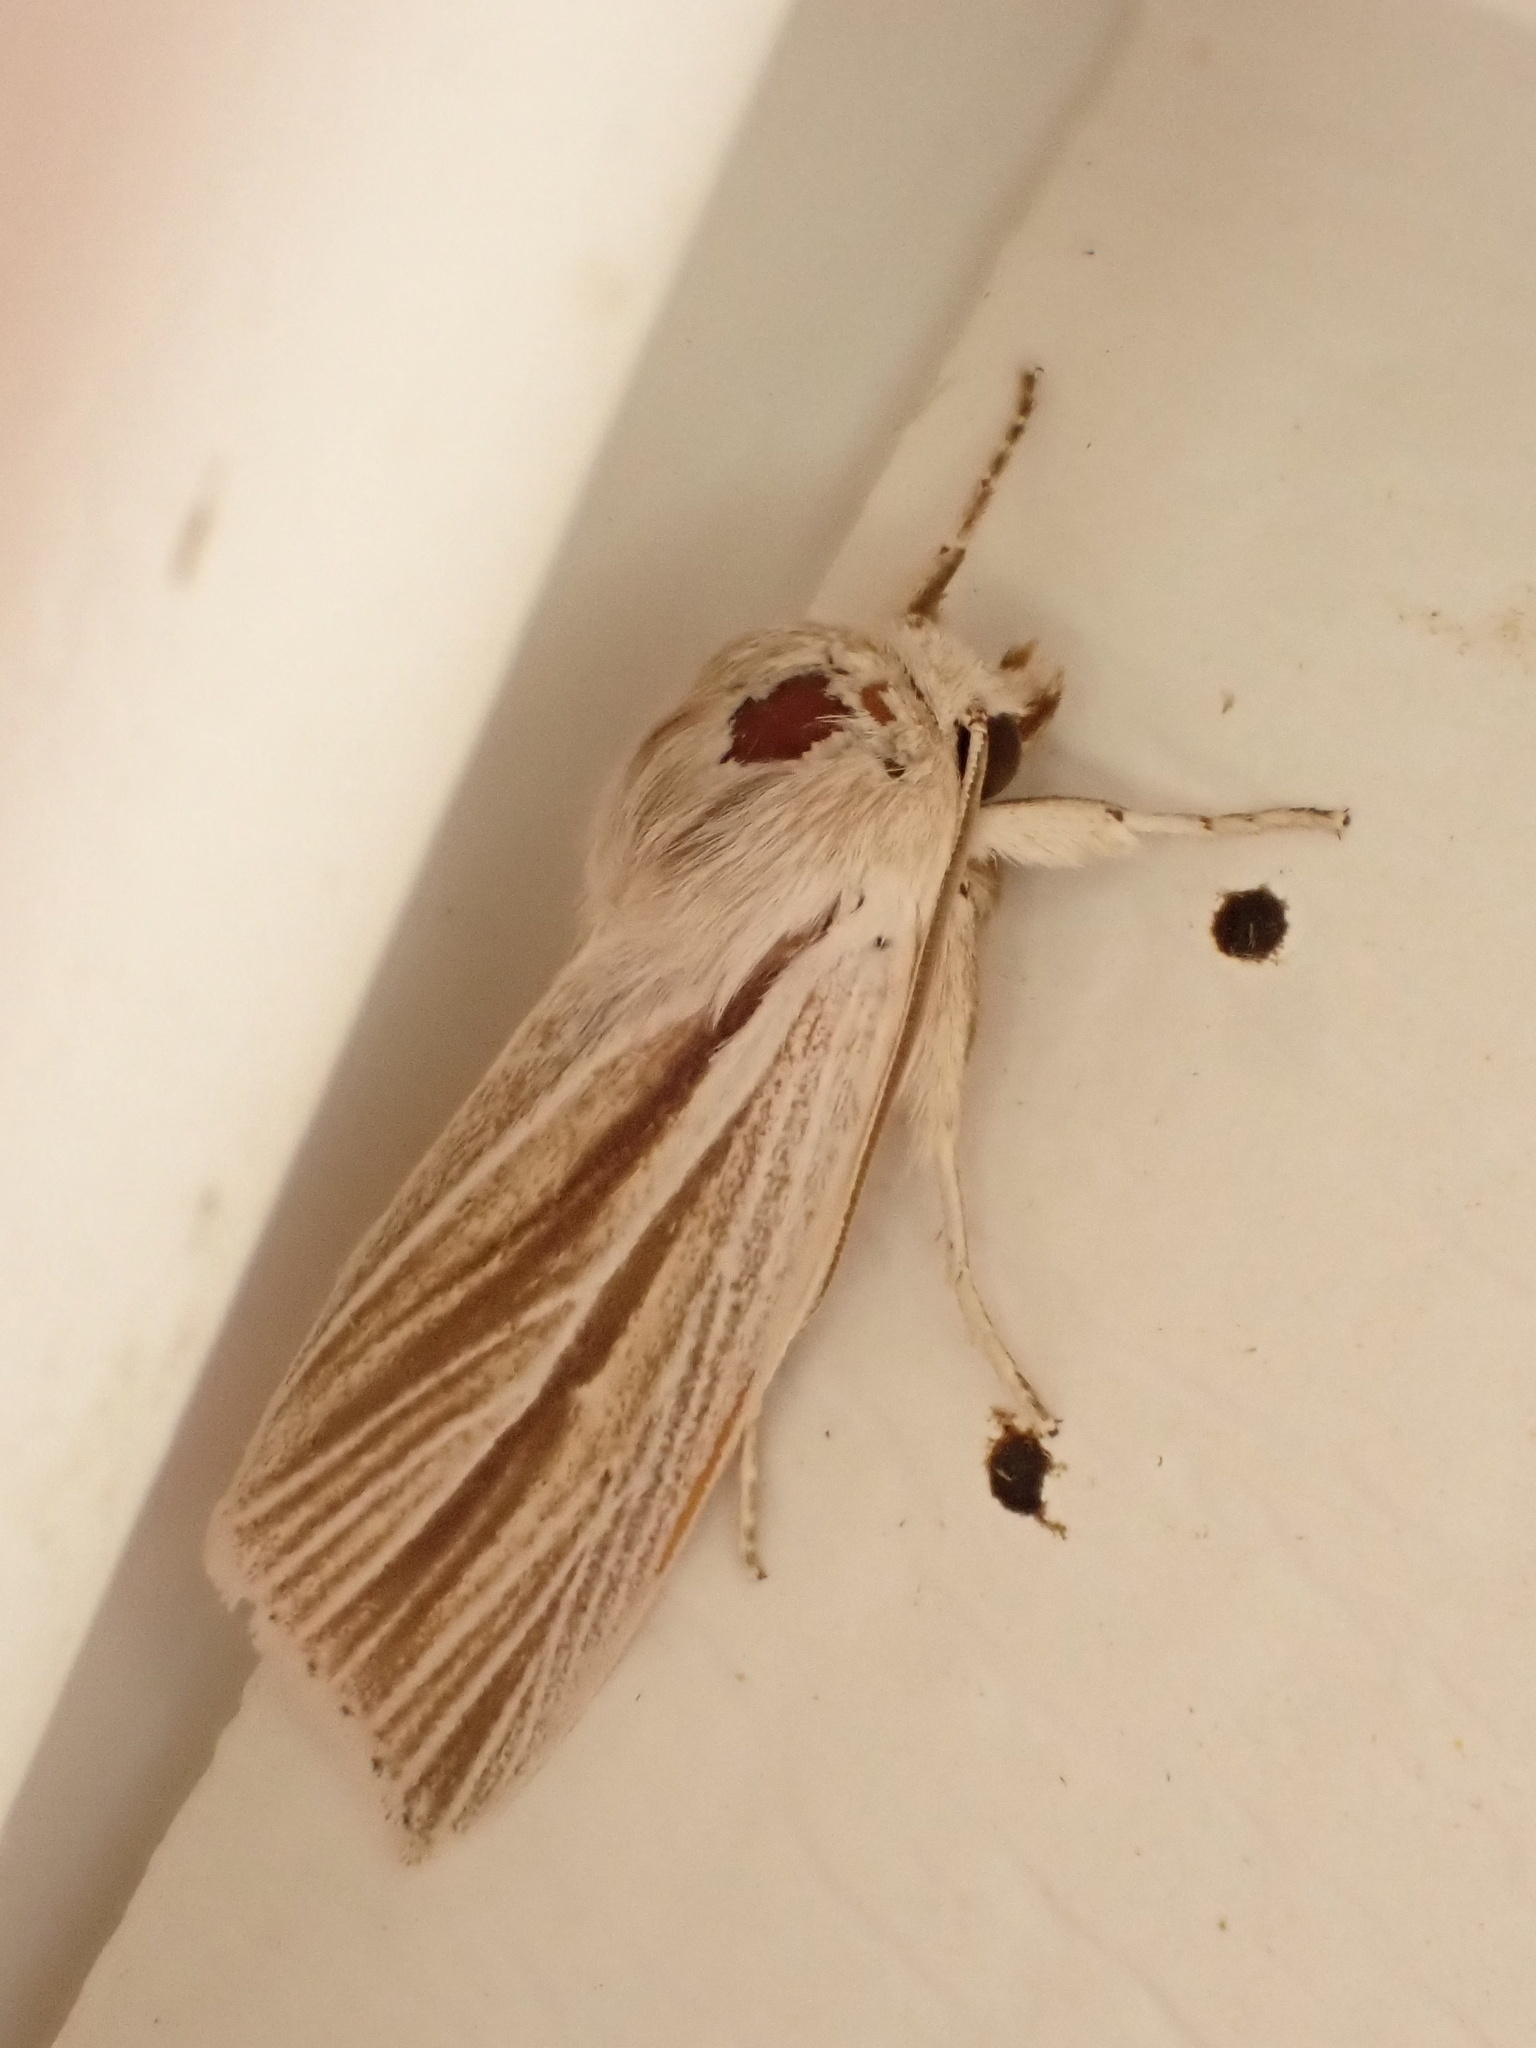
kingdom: Animalia
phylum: Arthropoda
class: Insecta
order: Lepidoptera
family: Noctuidae
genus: Acronicta
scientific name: Acronicta insularis
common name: Henry's marsh moth
